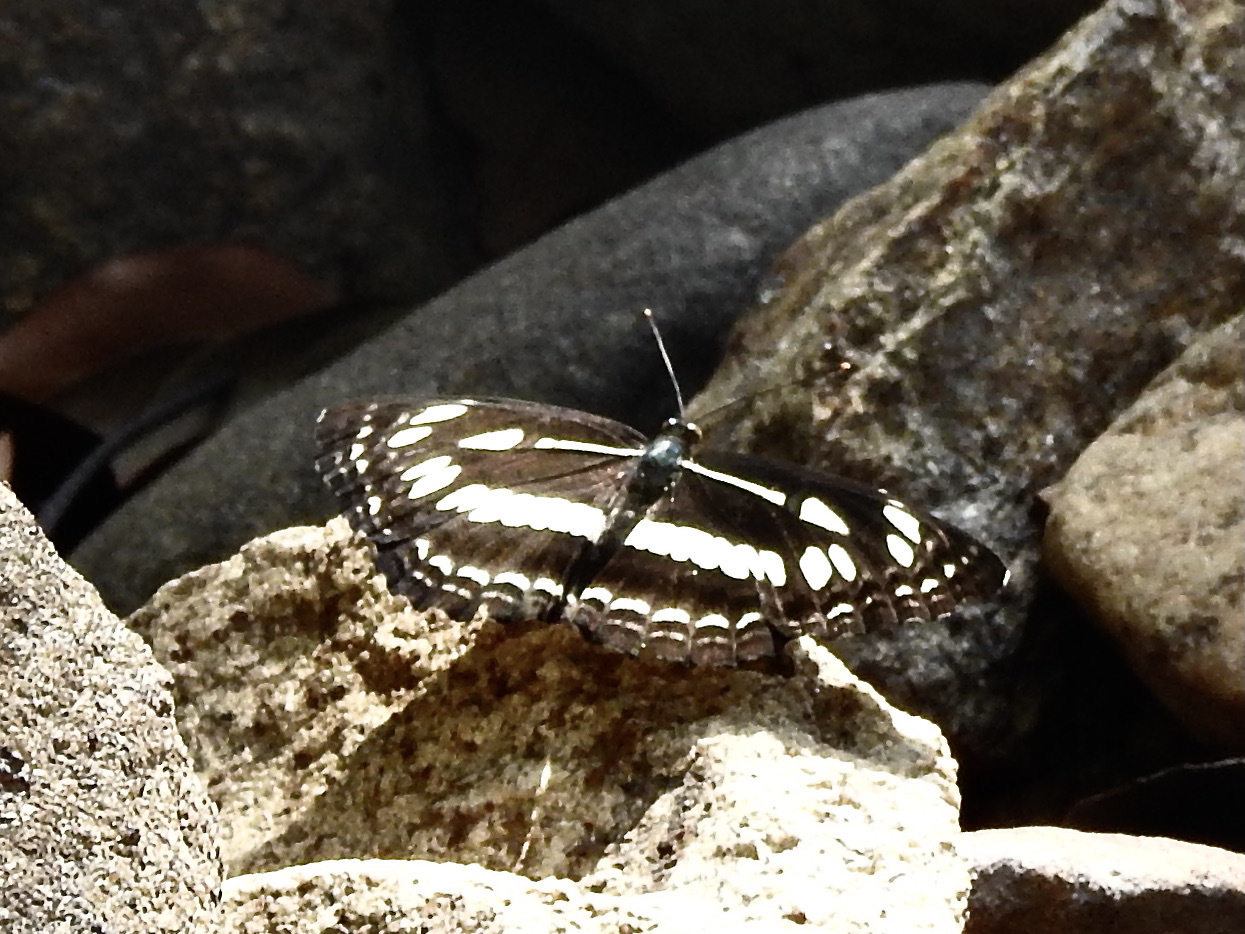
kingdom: Animalia
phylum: Arthropoda
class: Insecta
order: Lepidoptera
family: Nymphalidae
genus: Neptis
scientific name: Neptis jumbah
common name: Chestnut-streaked sailer
